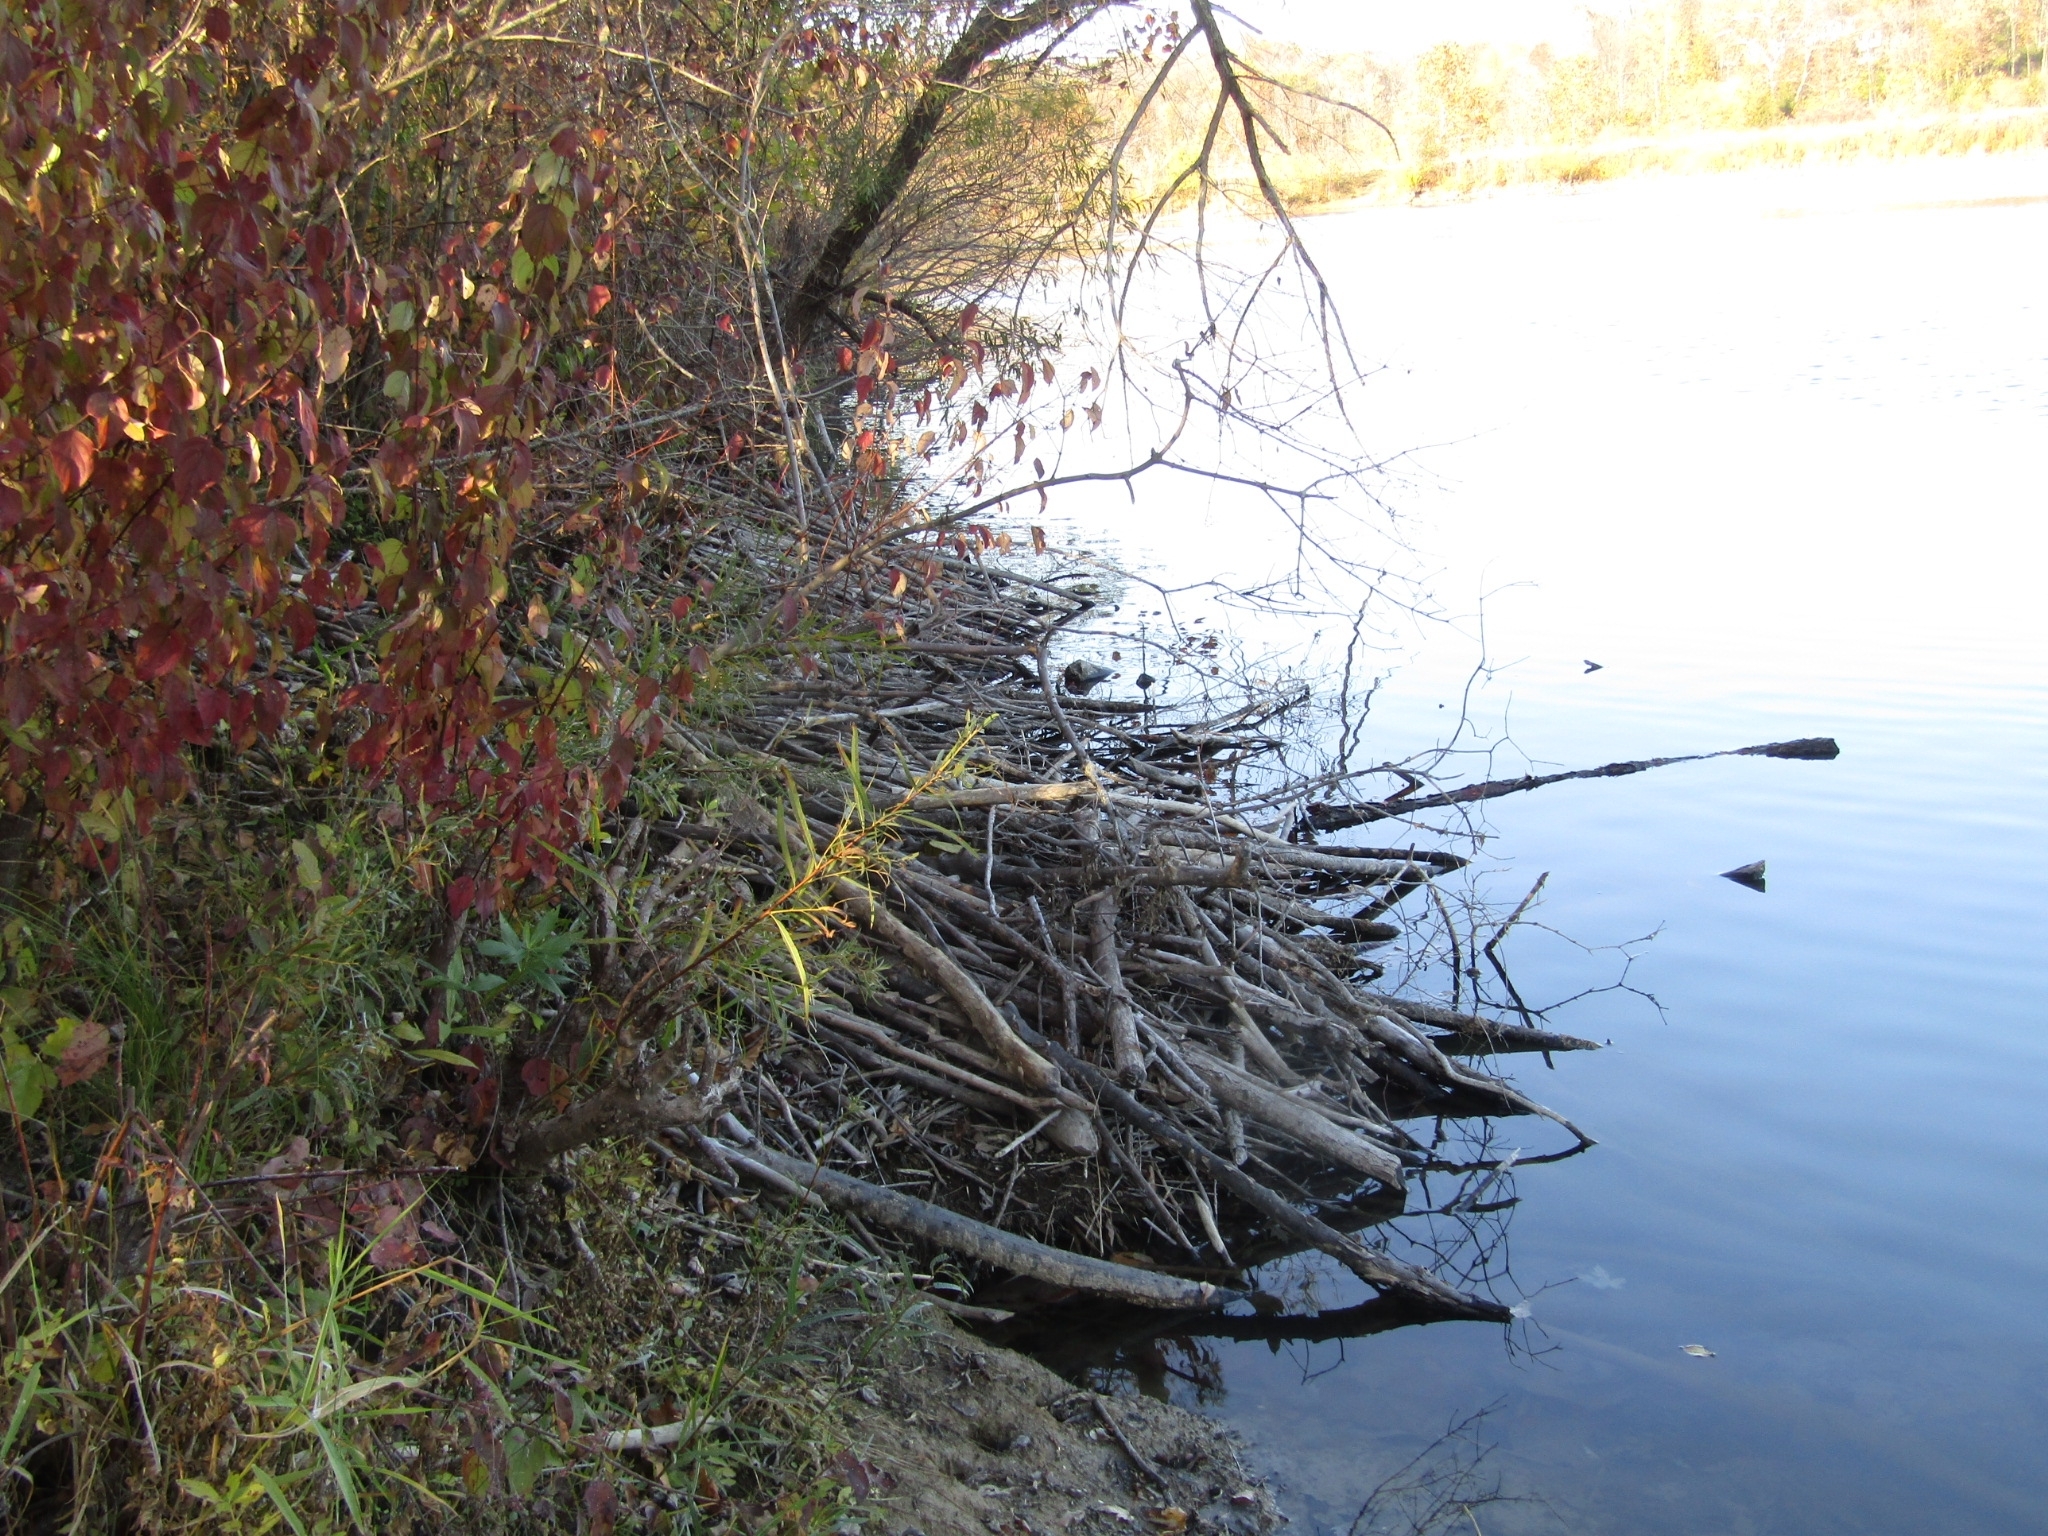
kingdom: Animalia
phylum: Chordata
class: Mammalia
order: Rodentia
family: Castoridae
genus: Castor
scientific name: Castor canadensis
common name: American beaver
